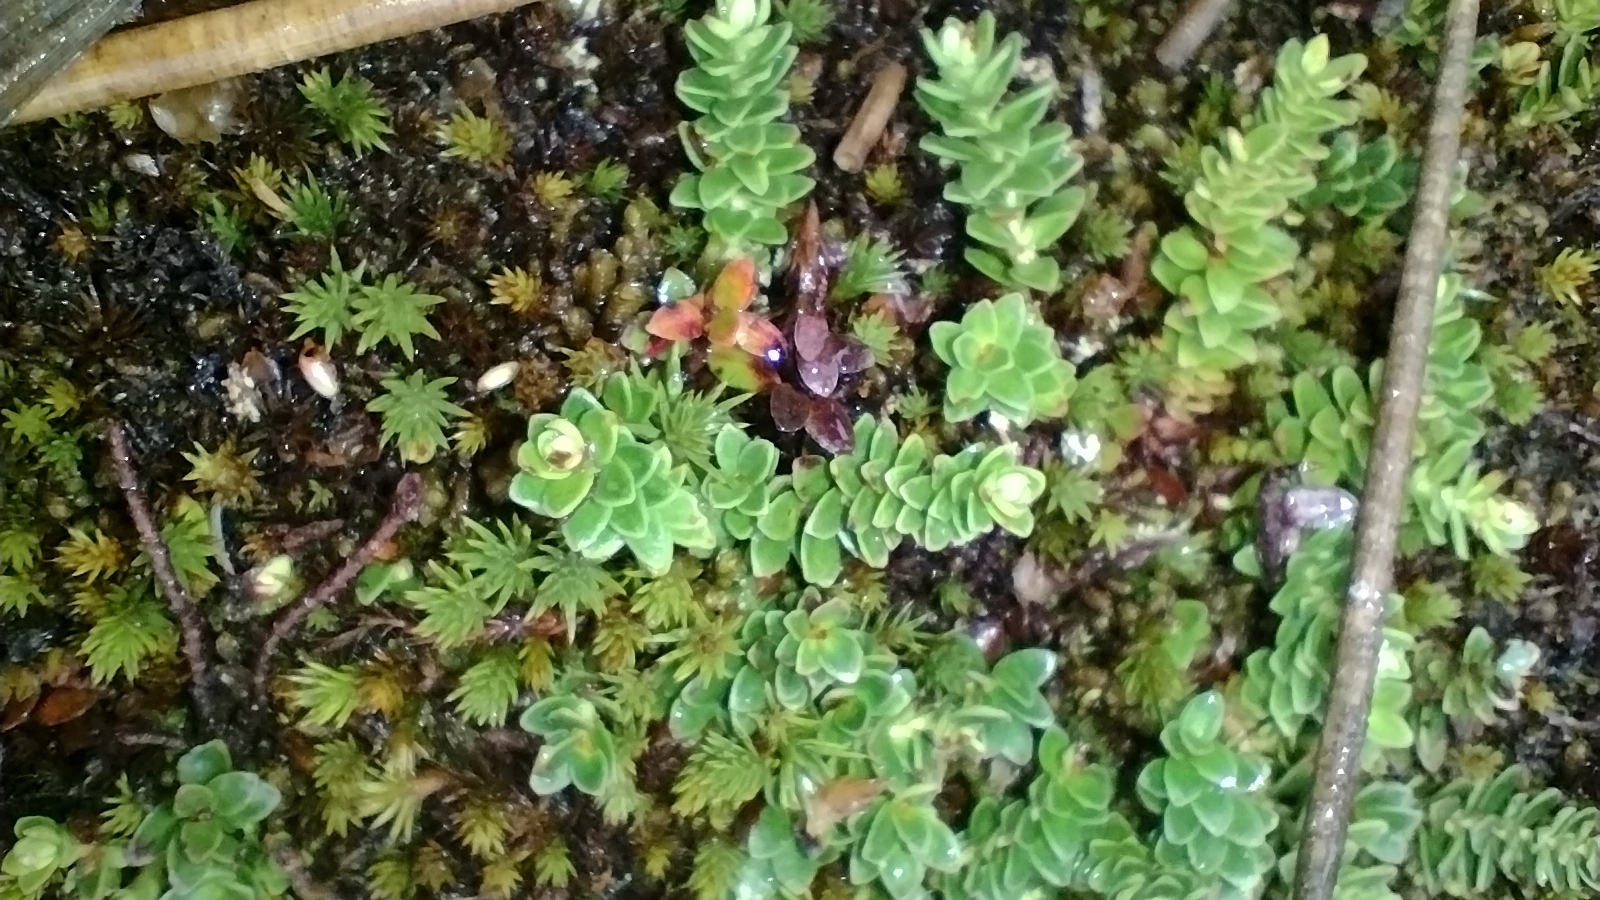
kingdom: Plantae
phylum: Tracheophyta
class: Magnoliopsida
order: Ericales
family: Ericaceae
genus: Gaultheria
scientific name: Gaultheria pumila
